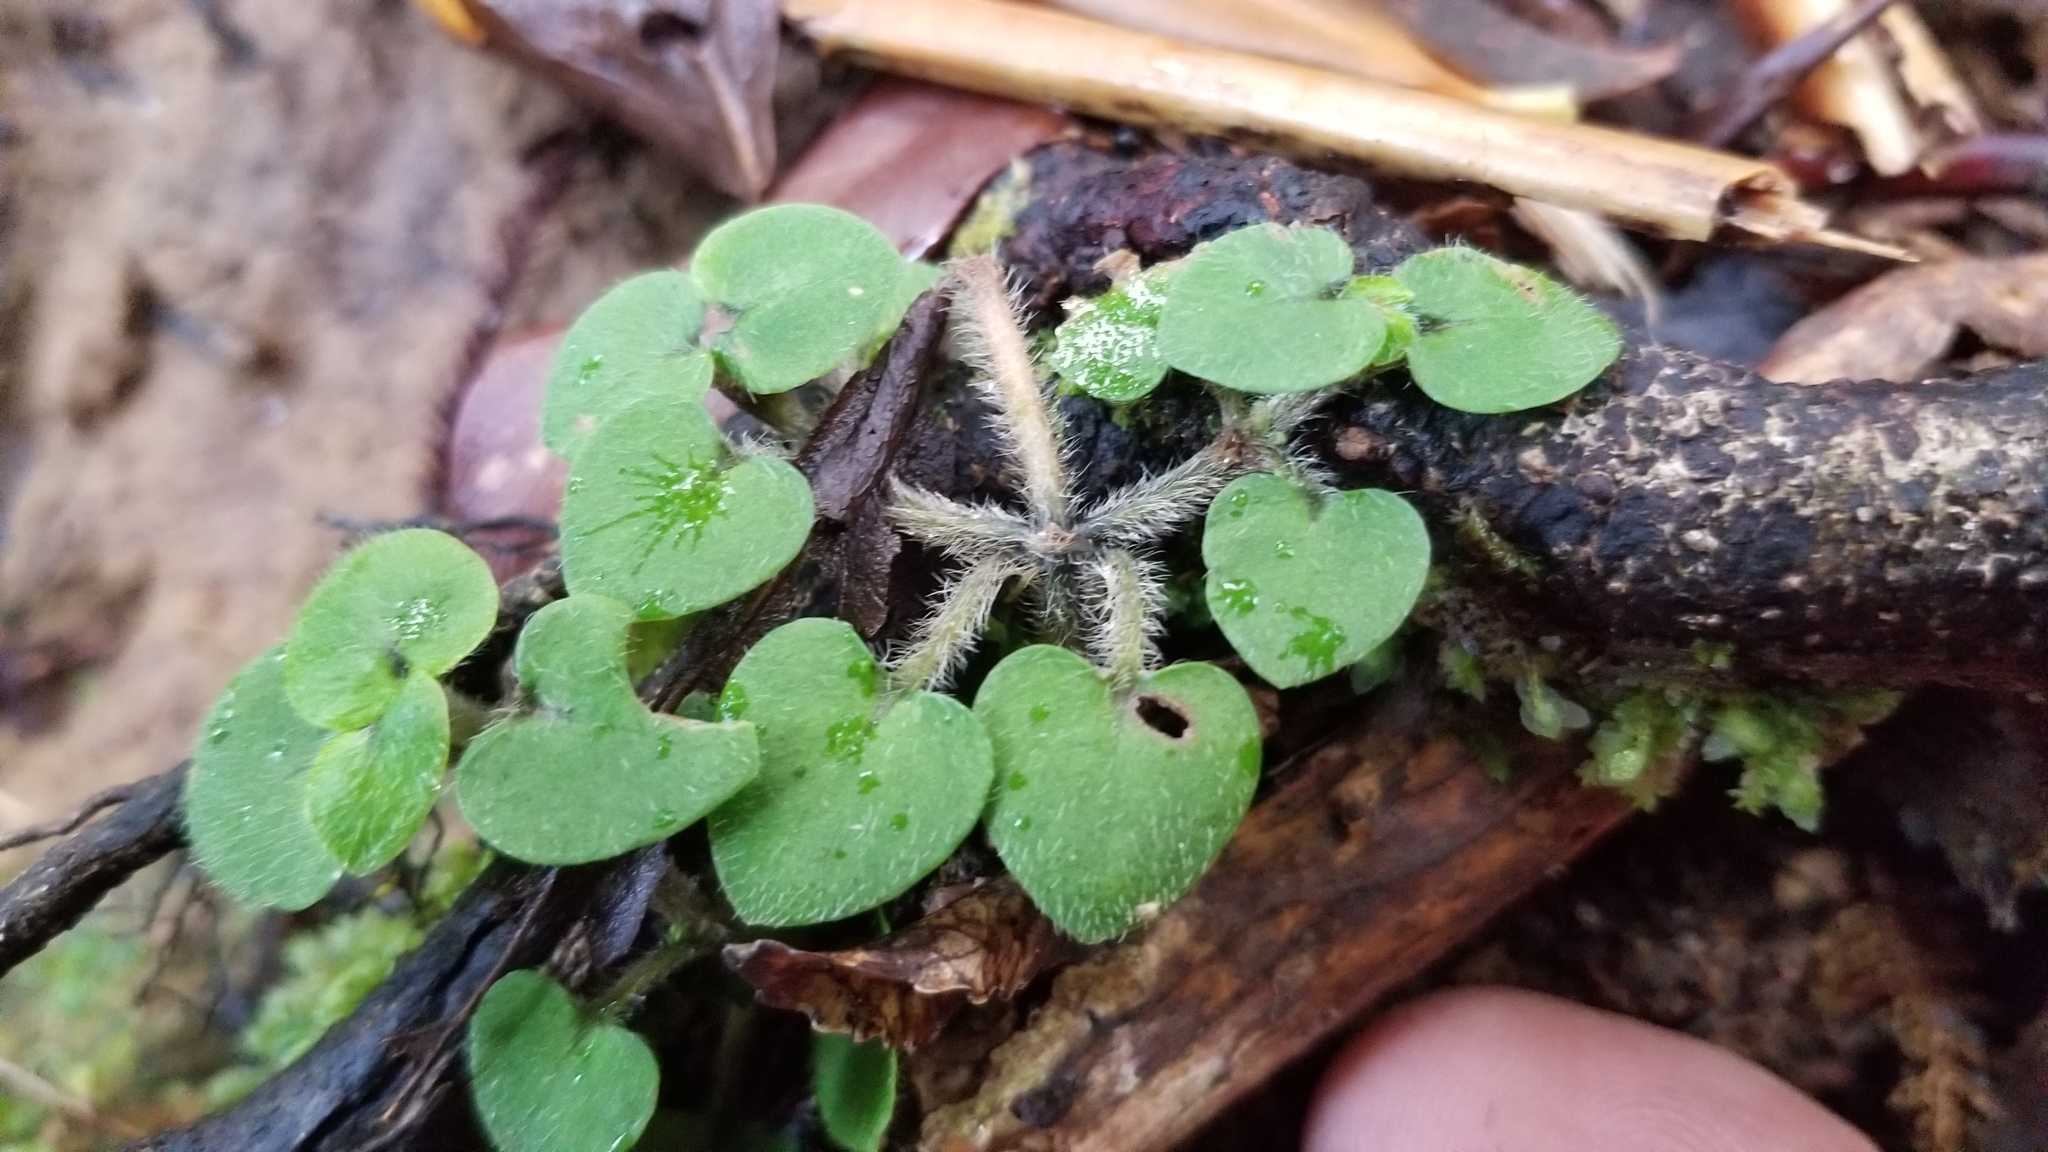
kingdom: Plantae
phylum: Tracheophyta
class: Magnoliopsida
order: Gentianales
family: Rubiaceae
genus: Nertera
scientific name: Nertera villosa
